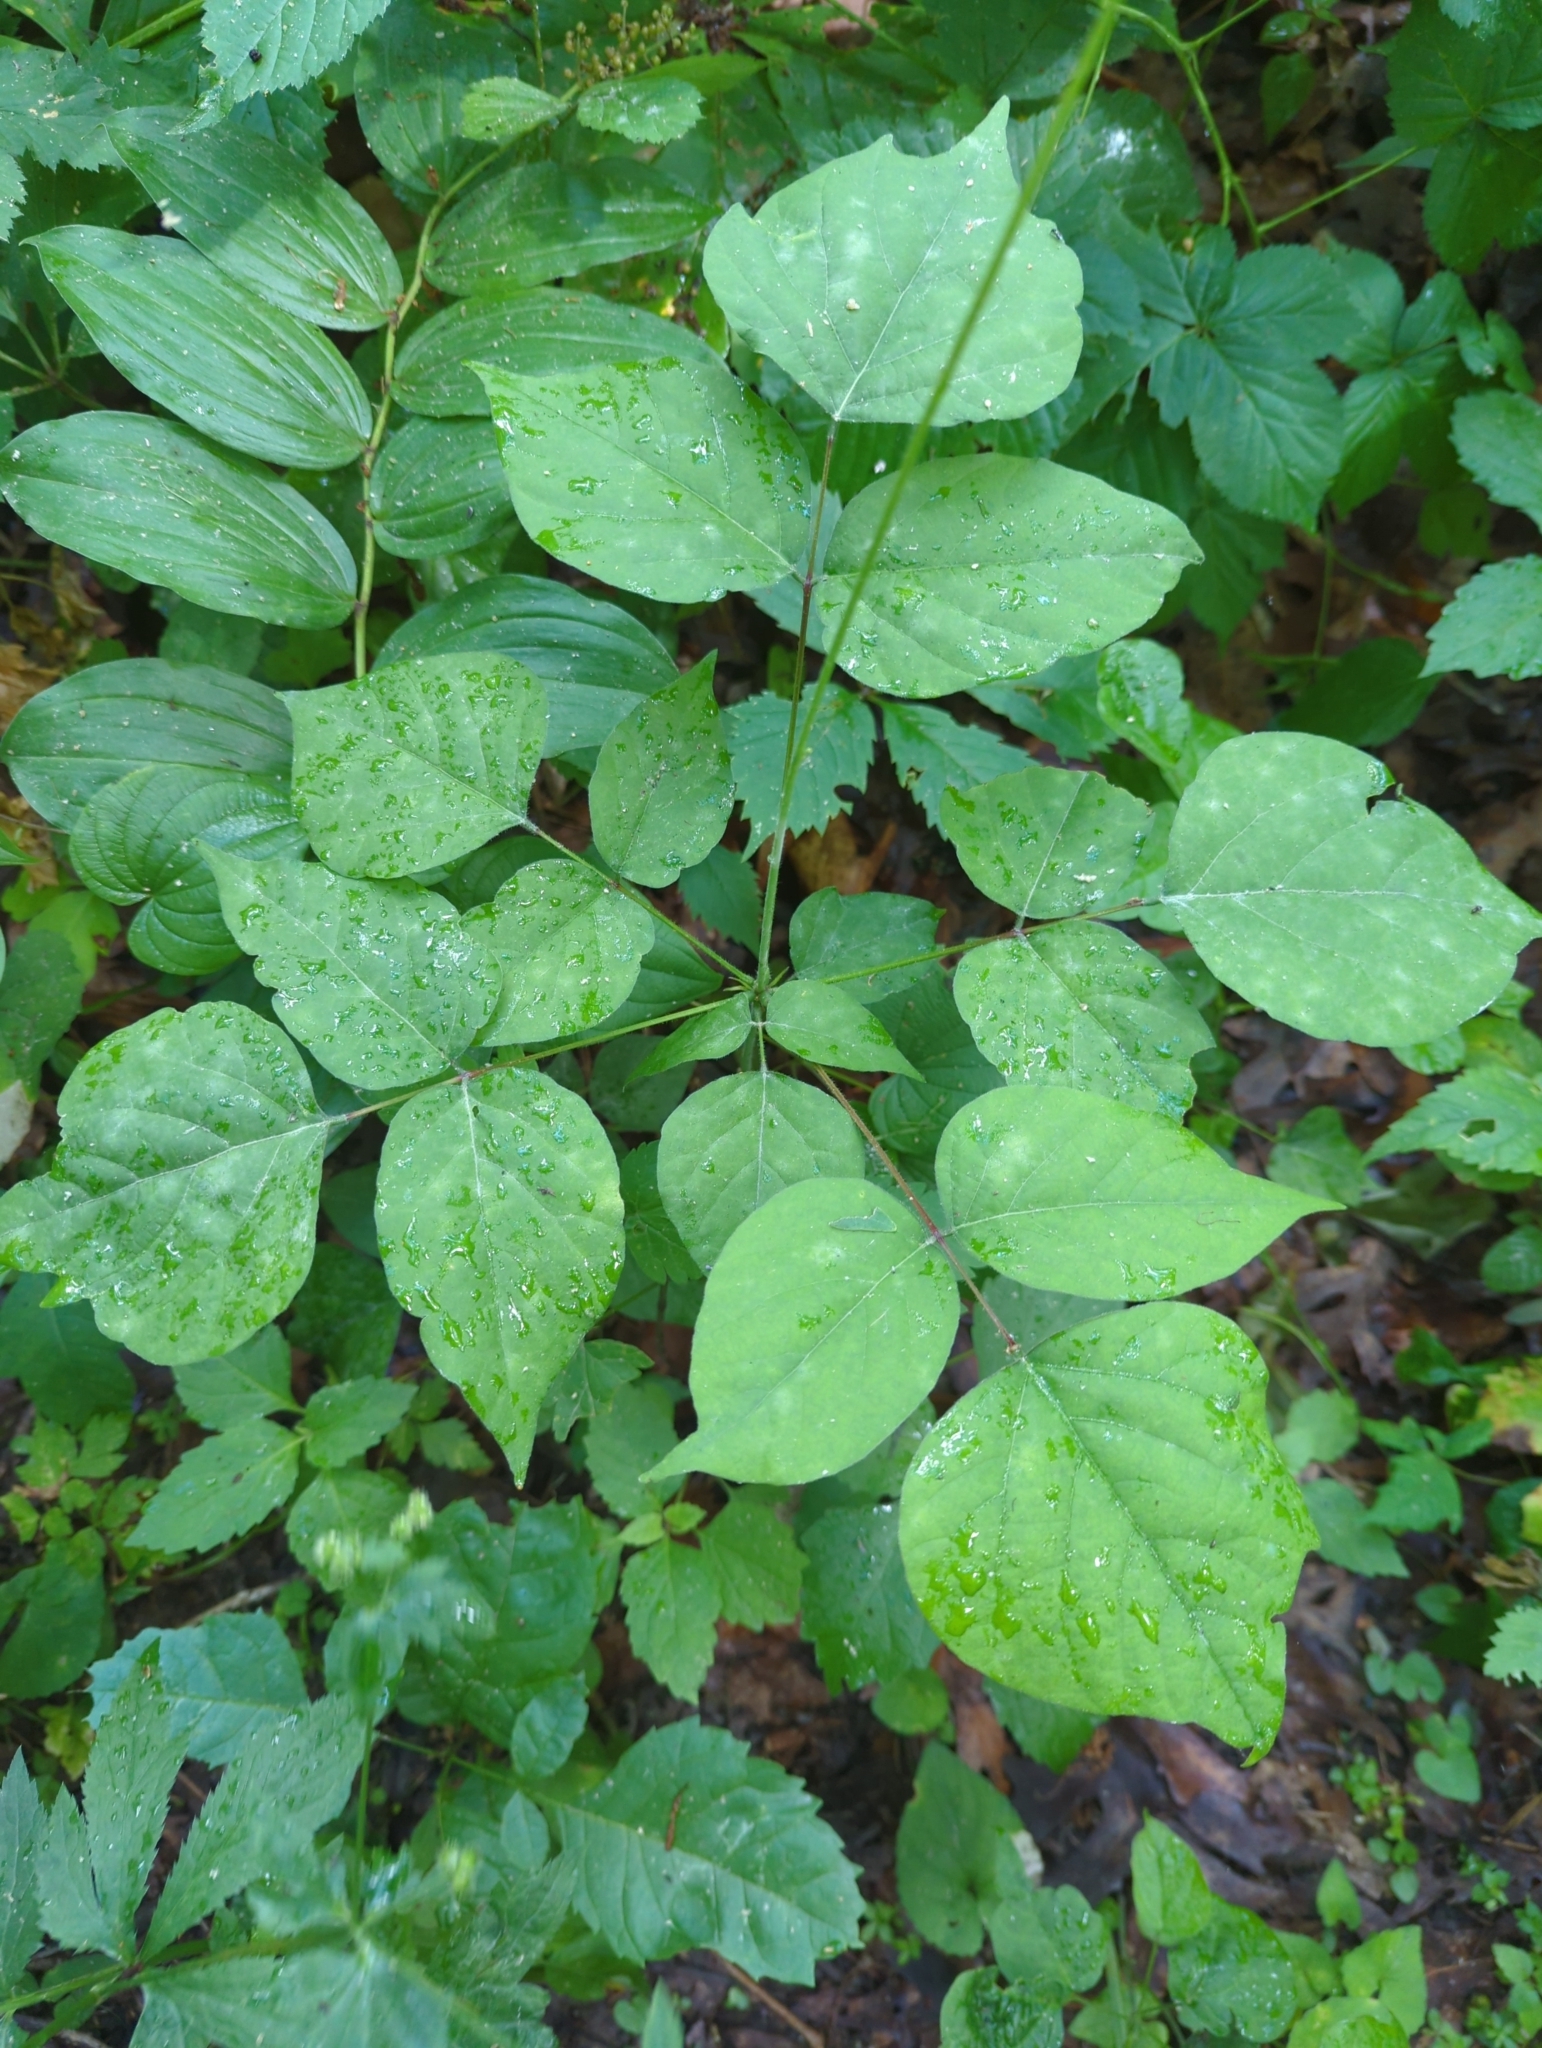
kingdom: Plantae
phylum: Tracheophyta
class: Magnoliopsida
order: Fabales
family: Fabaceae
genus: Hylodesmum
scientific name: Hylodesmum glutinosum
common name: Clustered-leaved tick-trefoil
